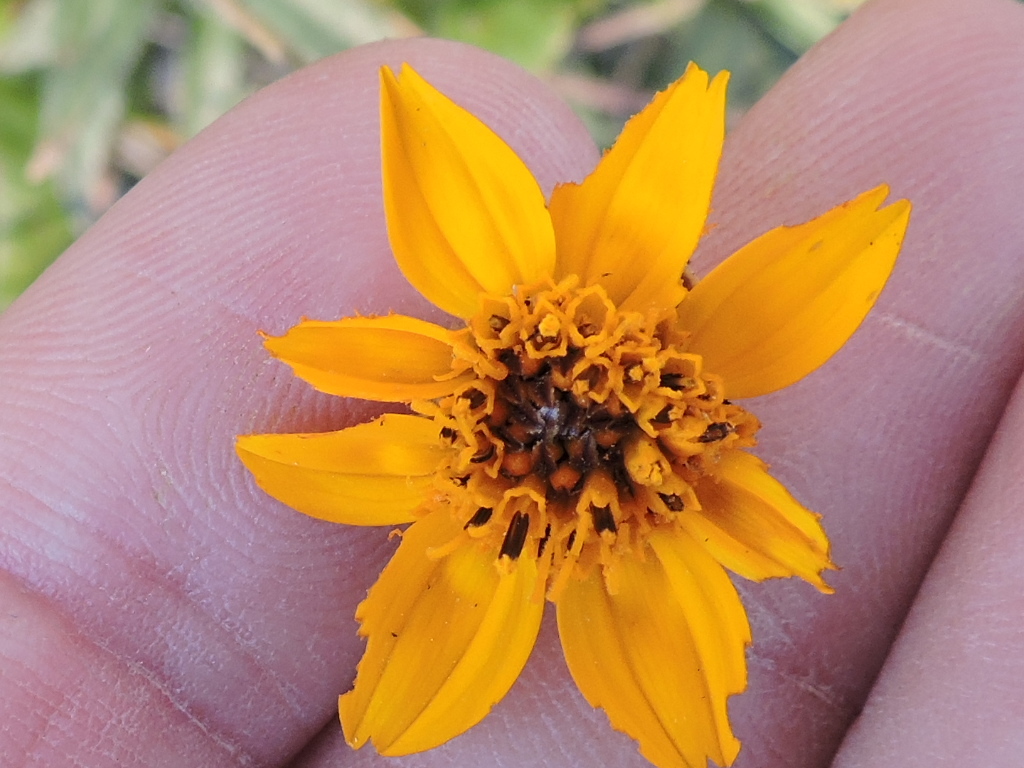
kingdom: Plantae
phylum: Tracheophyta
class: Magnoliopsida
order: Asterales
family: Asteraceae
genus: Wedelia
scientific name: Wedelia acapulcensis
